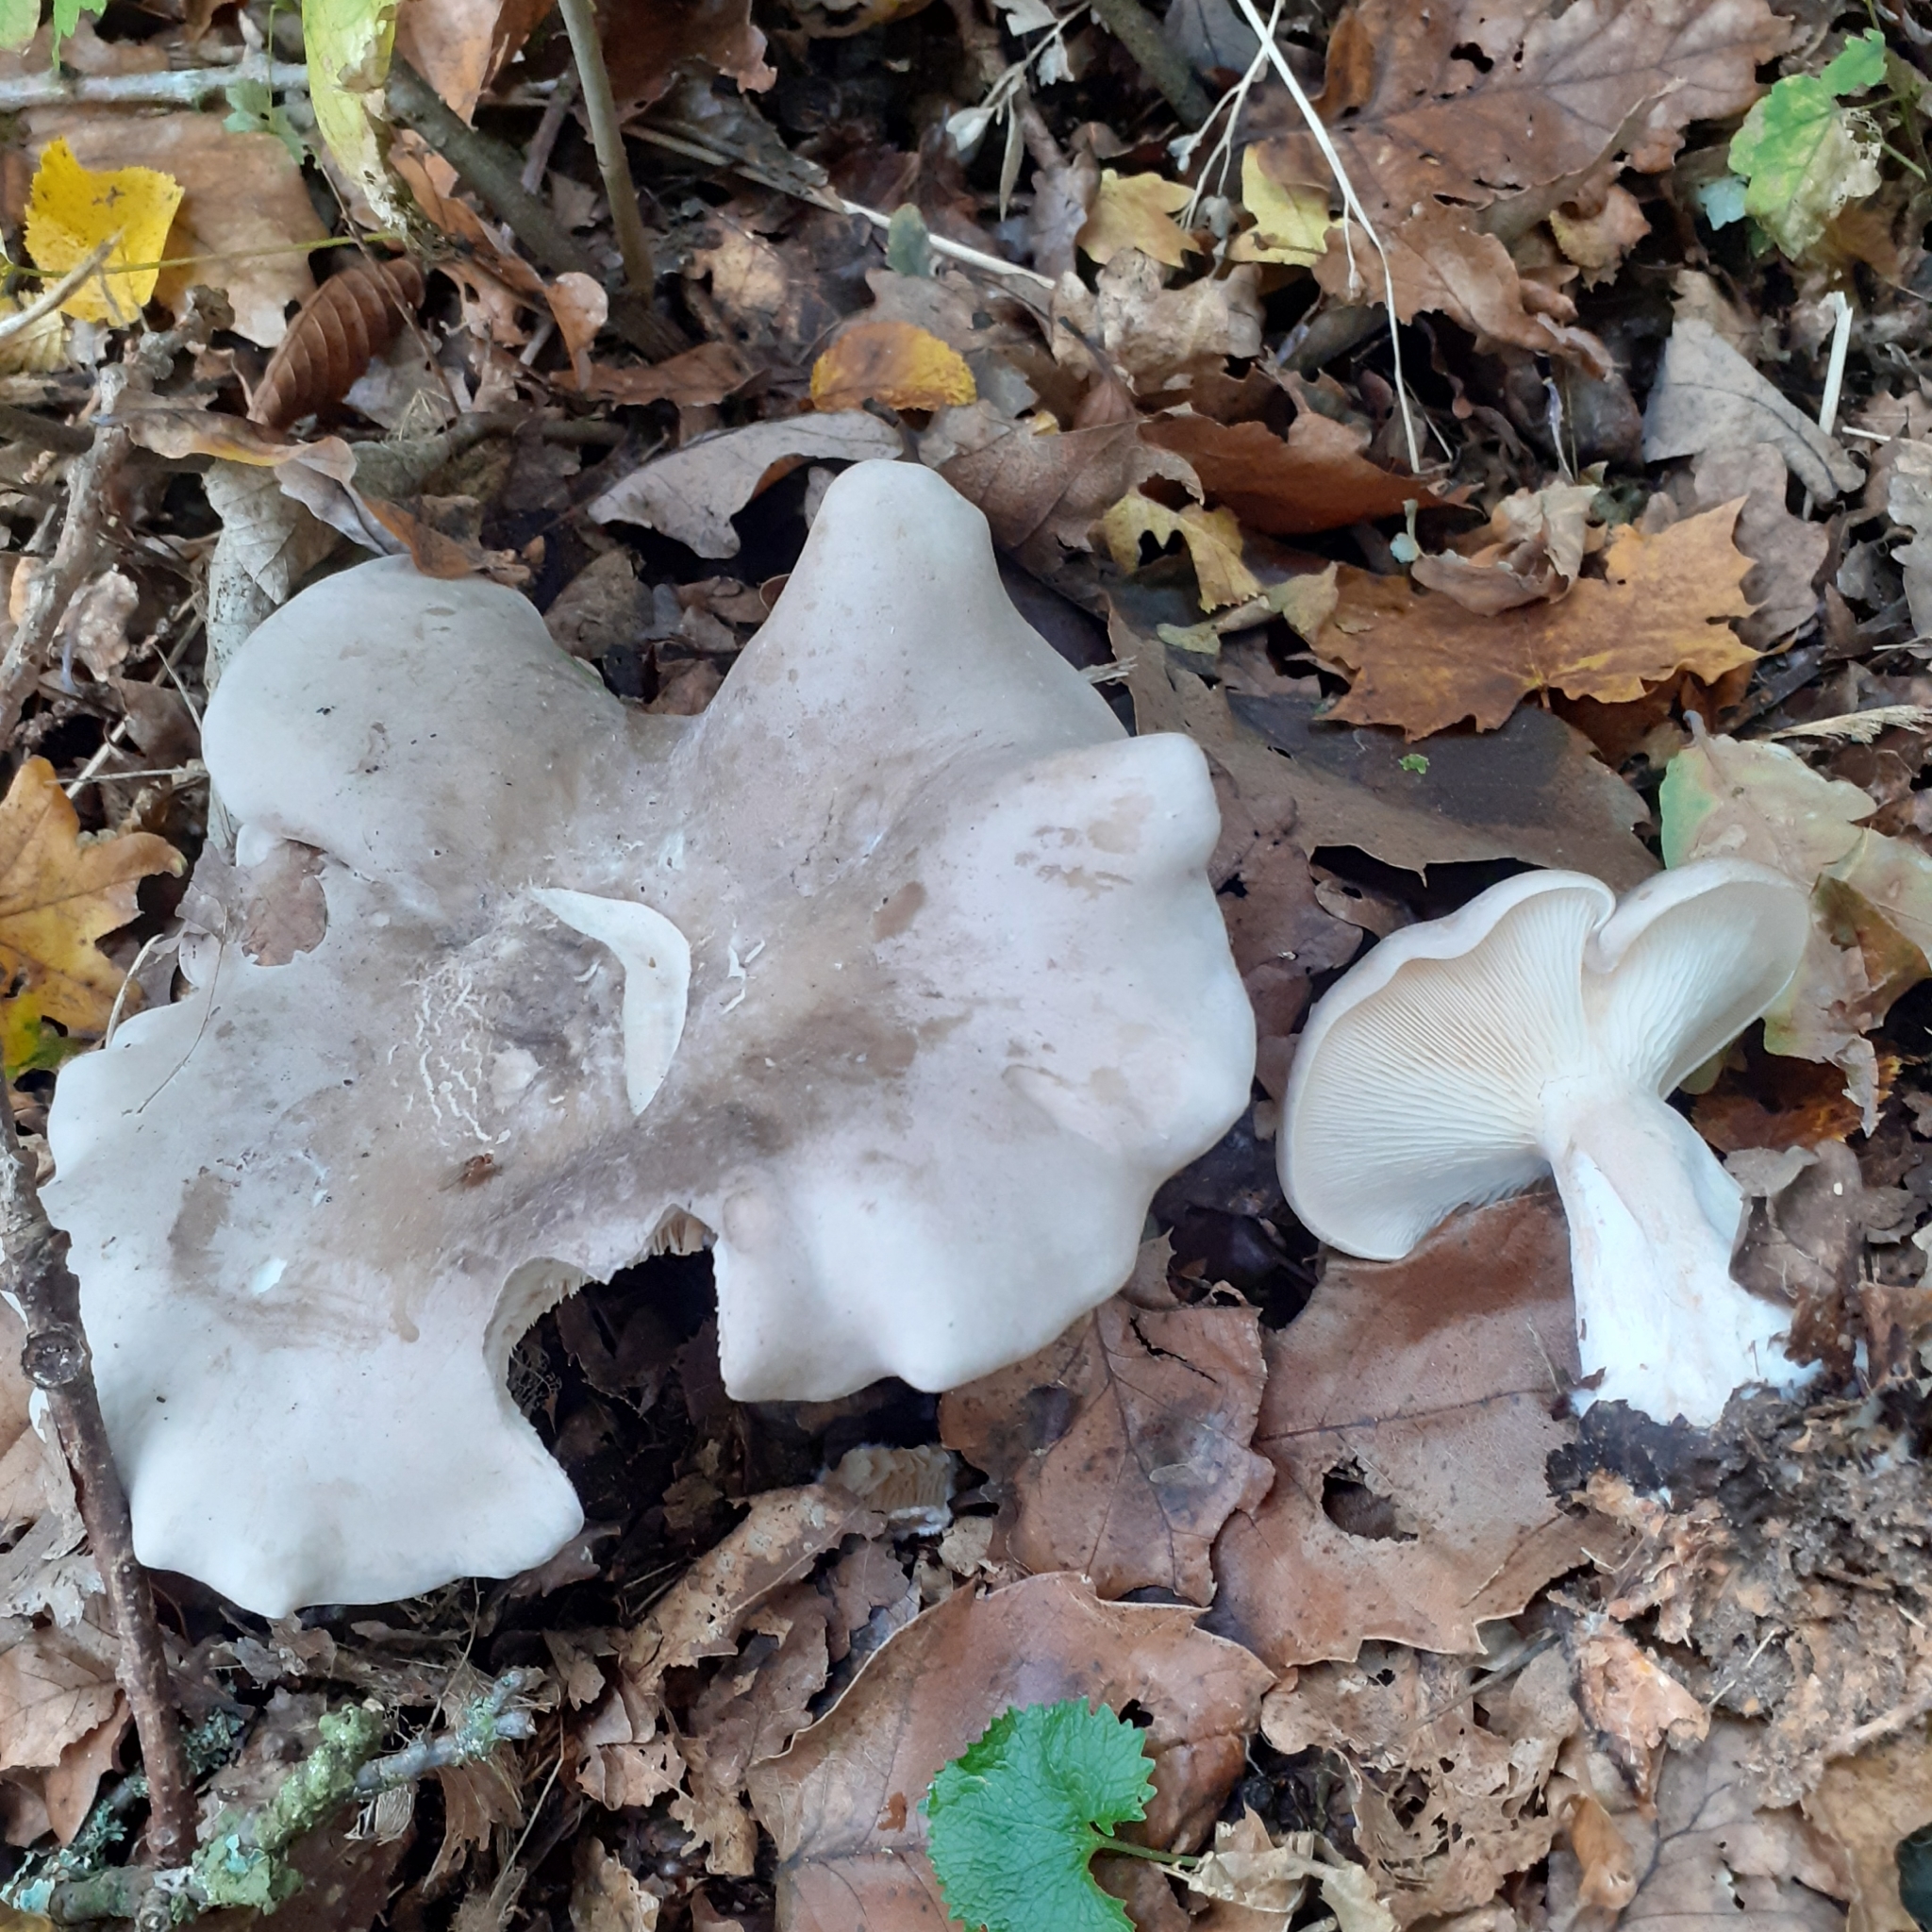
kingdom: Fungi
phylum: Basidiomycota
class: Agaricomycetes
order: Agaricales
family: Tricholomataceae
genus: Clitocybe
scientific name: Clitocybe nebularis
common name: Clouded agaric
